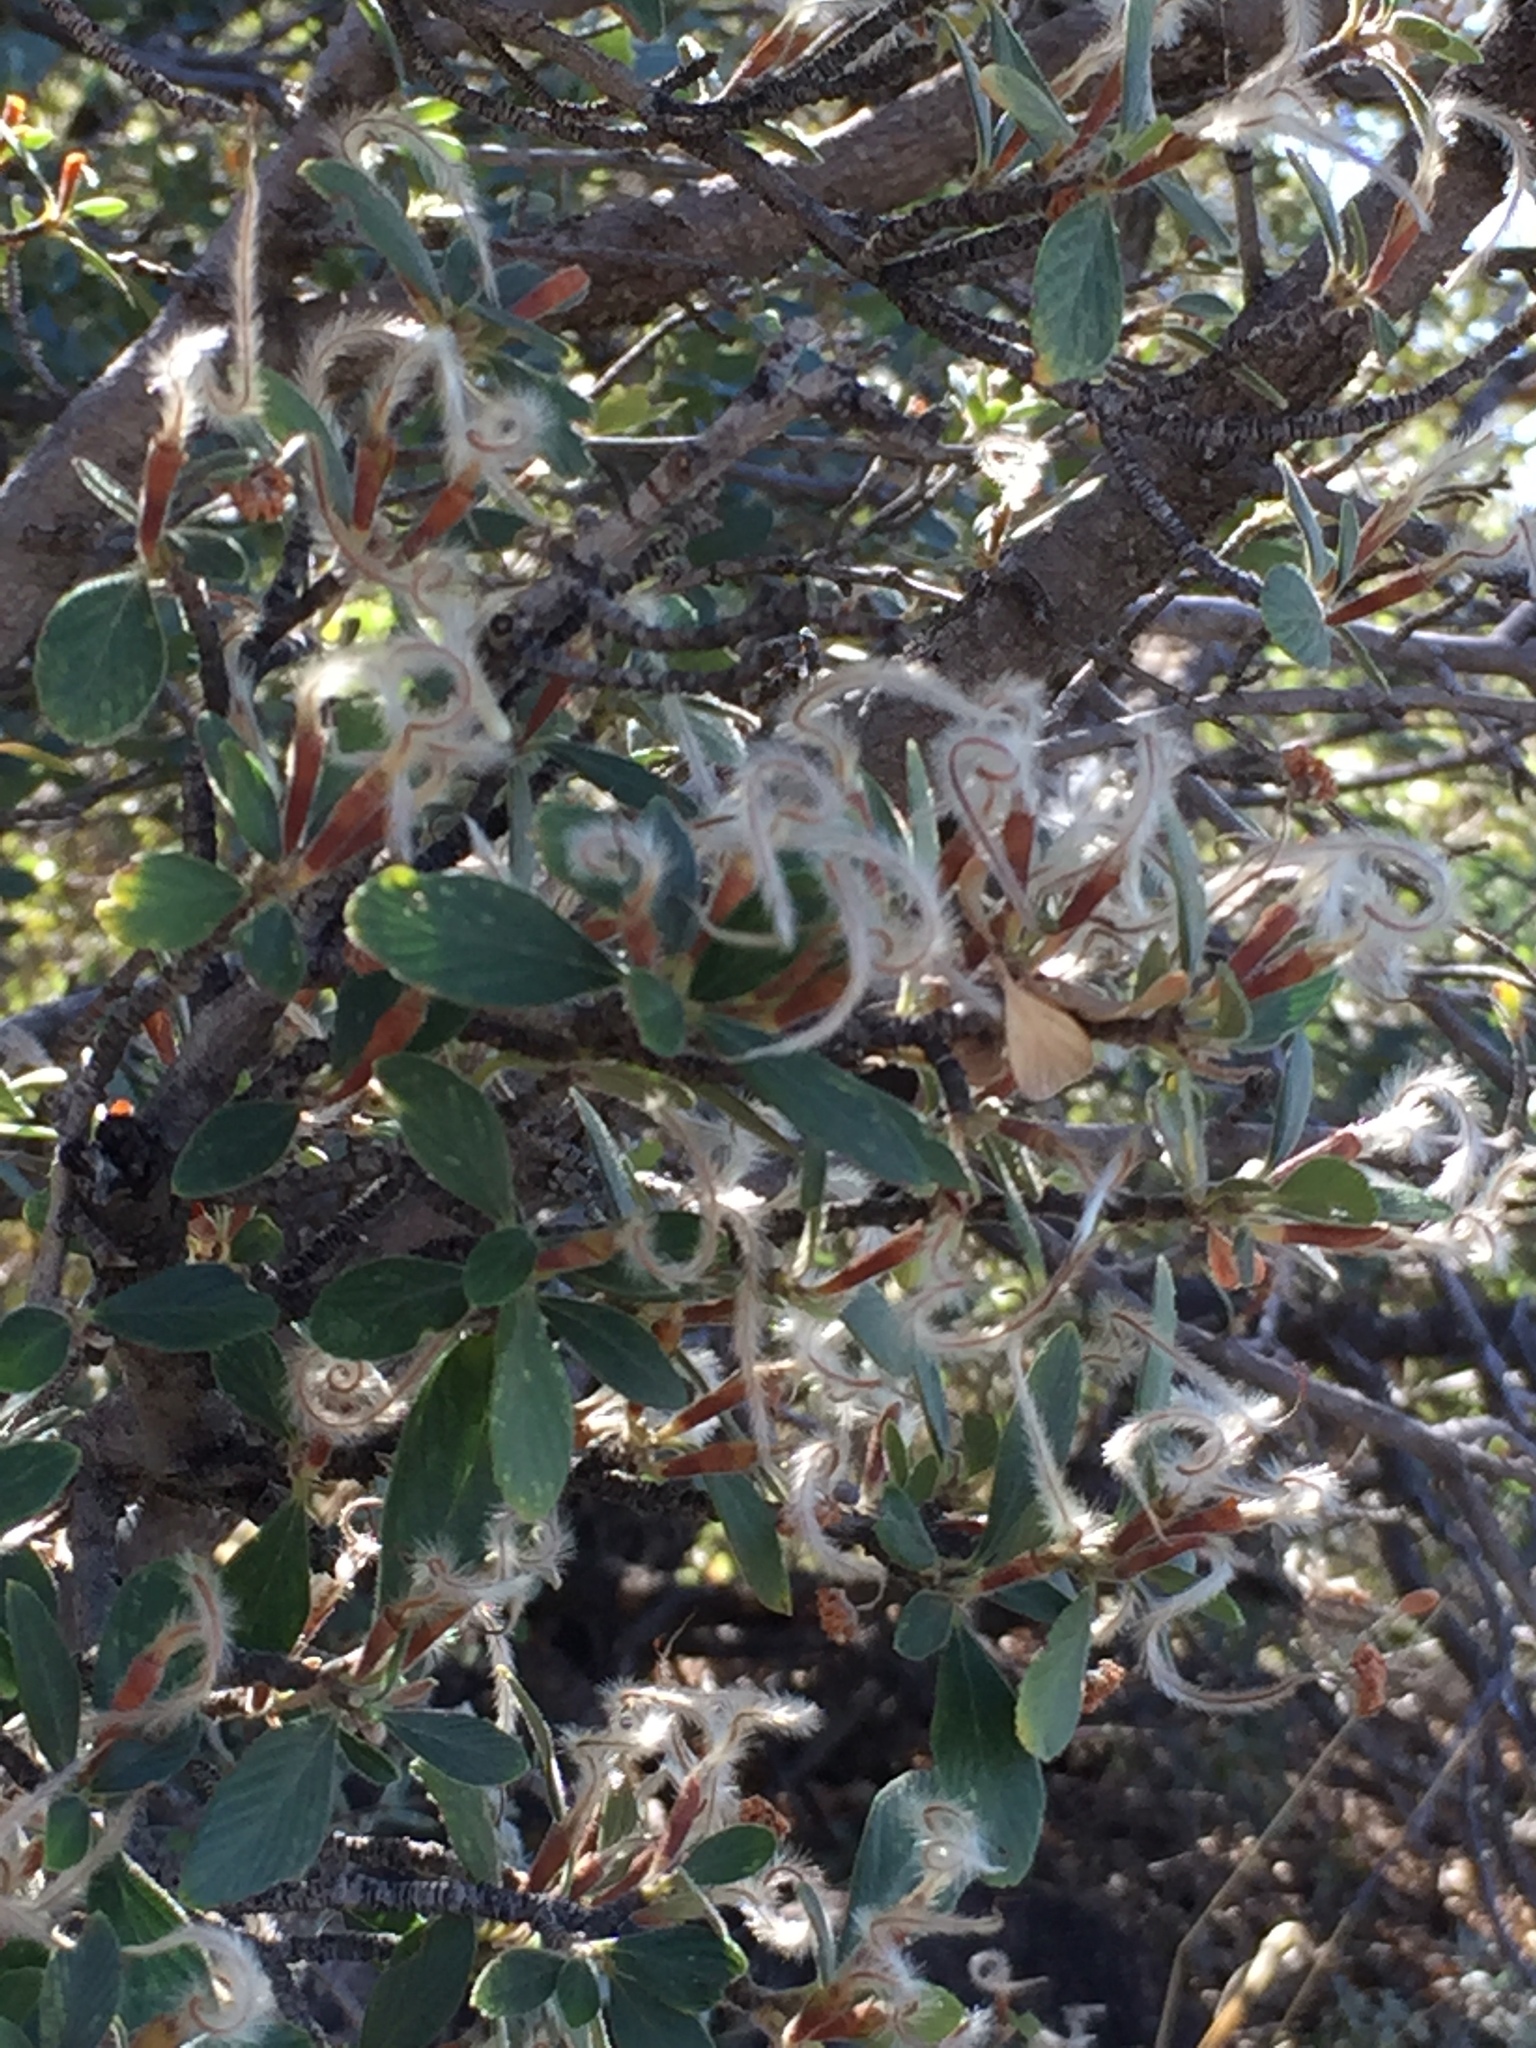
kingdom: Plantae
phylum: Tracheophyta
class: Magnoliopsida
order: Rosales
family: Rosaceae
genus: Cercocarpus
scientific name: Cercocarpus breviflorus
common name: Wright's mountain-mahogany
